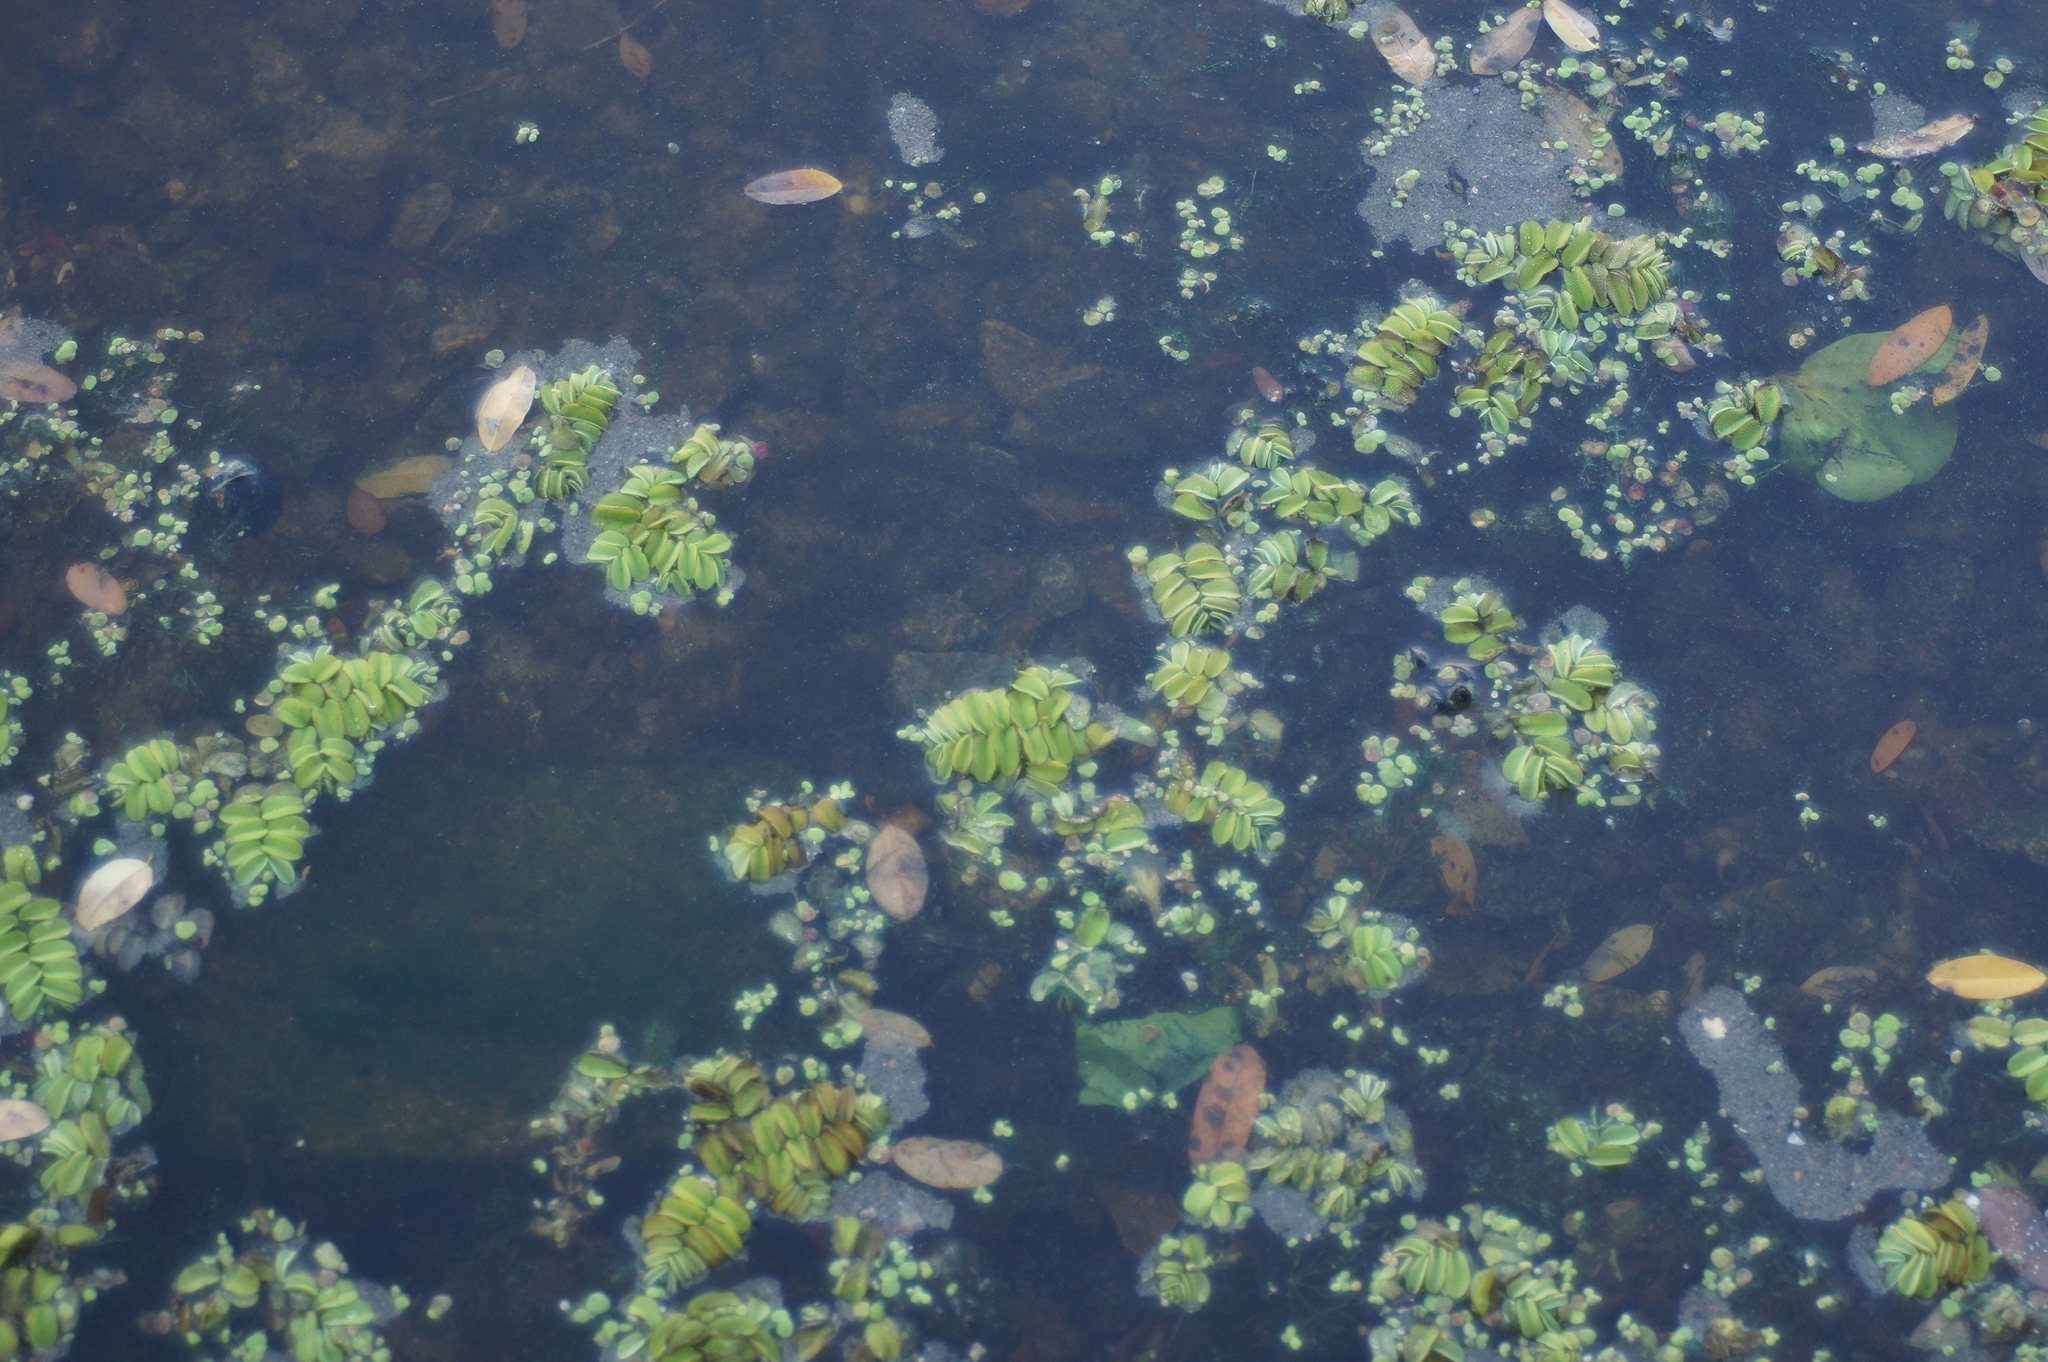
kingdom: Plantae
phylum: Tracheophyta
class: Polypodiopsida
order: Salviniales
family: Salviniaceae
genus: Salvinia
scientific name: Salvinia natans
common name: Floating fern
